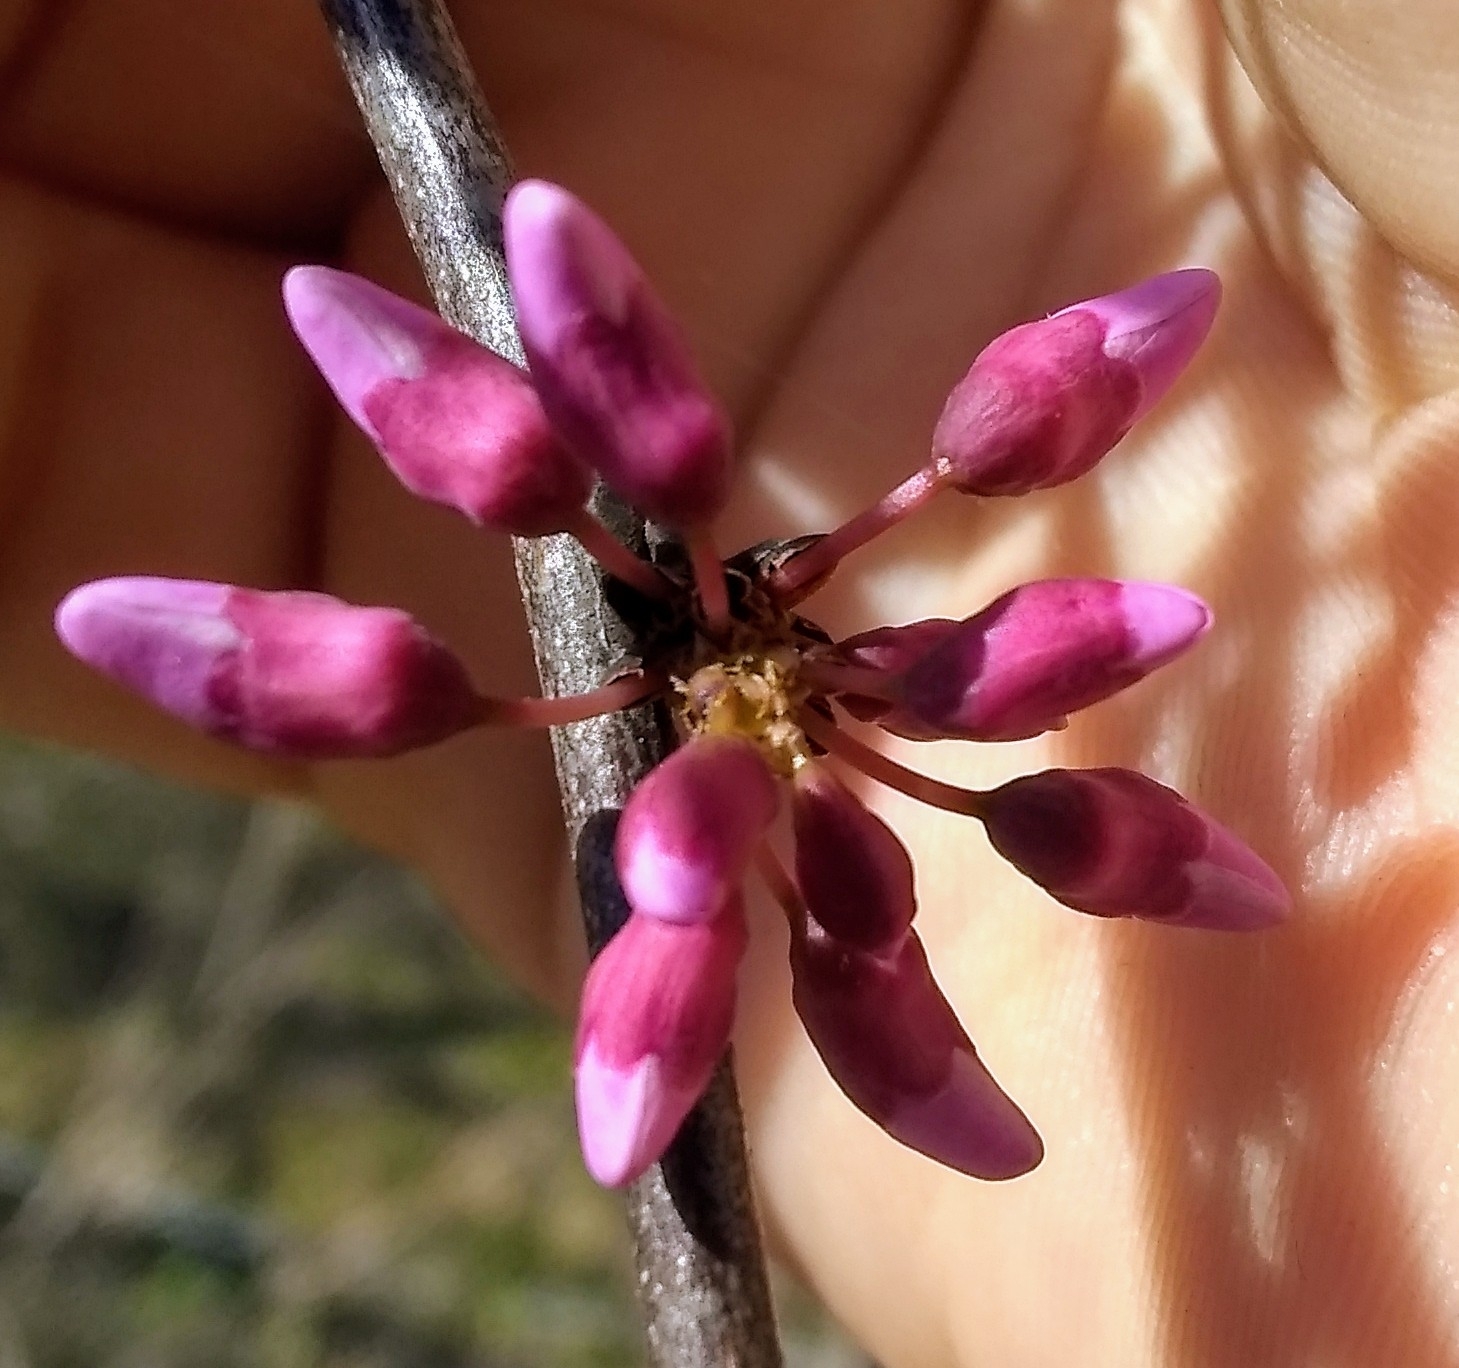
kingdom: Plantae
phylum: Tracheophyta
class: Magnoliopsida
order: Fabales
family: Fabaceae
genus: Cercis
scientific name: Cercis canadensis
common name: Eastern redbud
